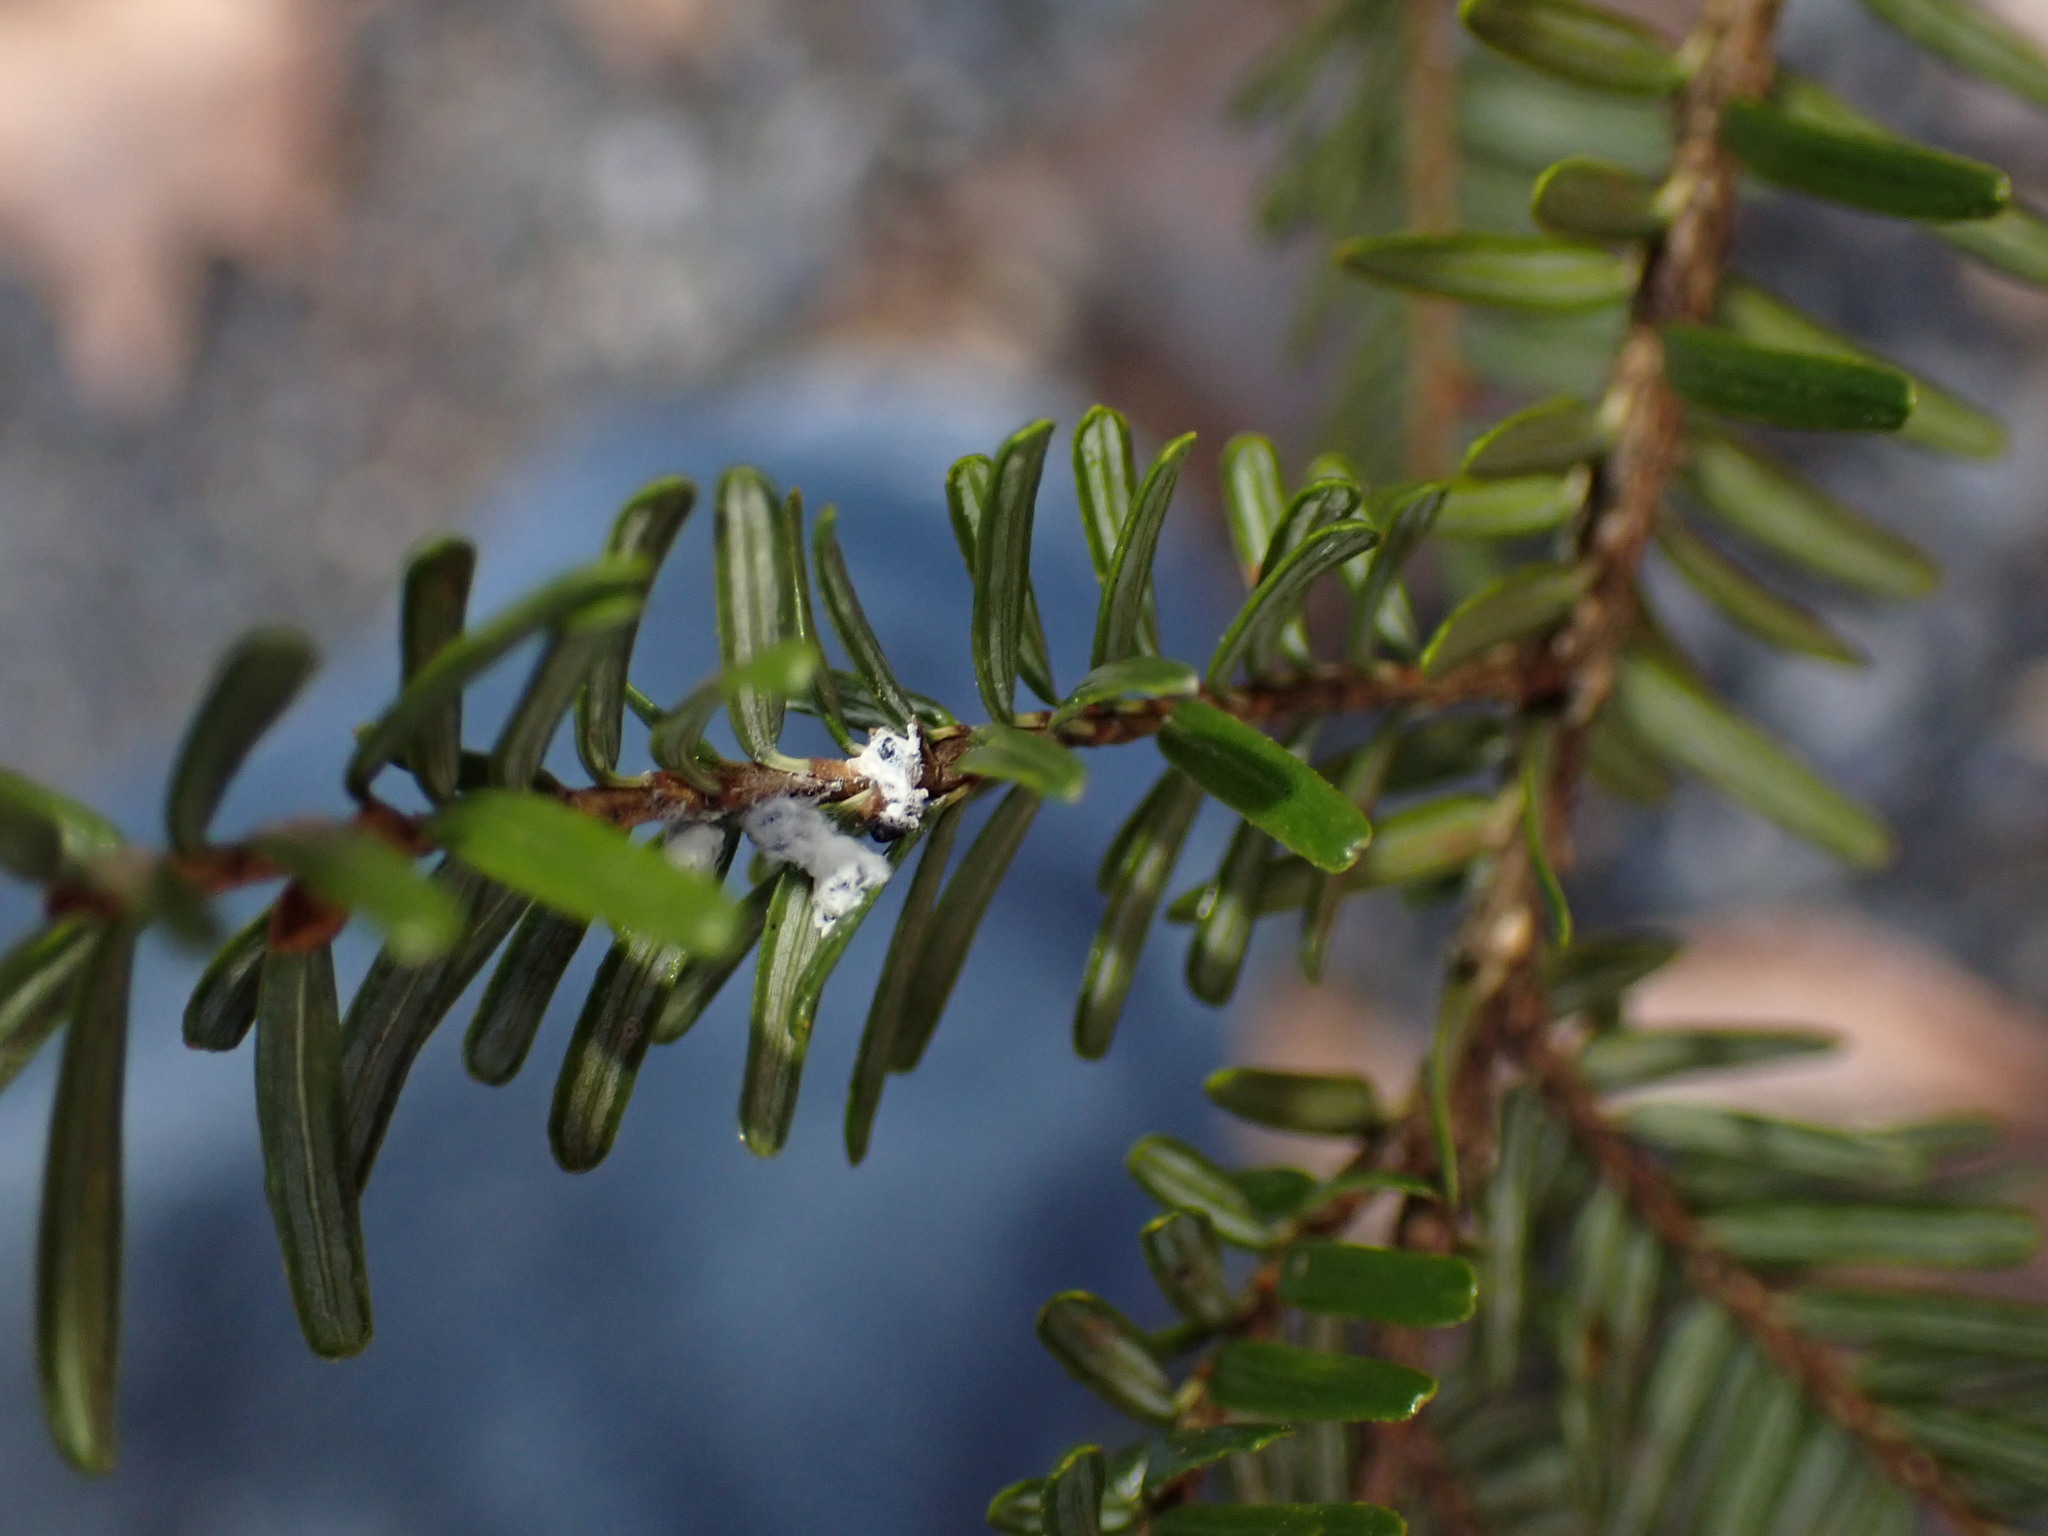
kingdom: Animalia
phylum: Arthropoda
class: Insecta
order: Hemiptera
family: Adelgidae
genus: Adelges
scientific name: Adelges tsugae
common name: Hemlock woolly adelgid
